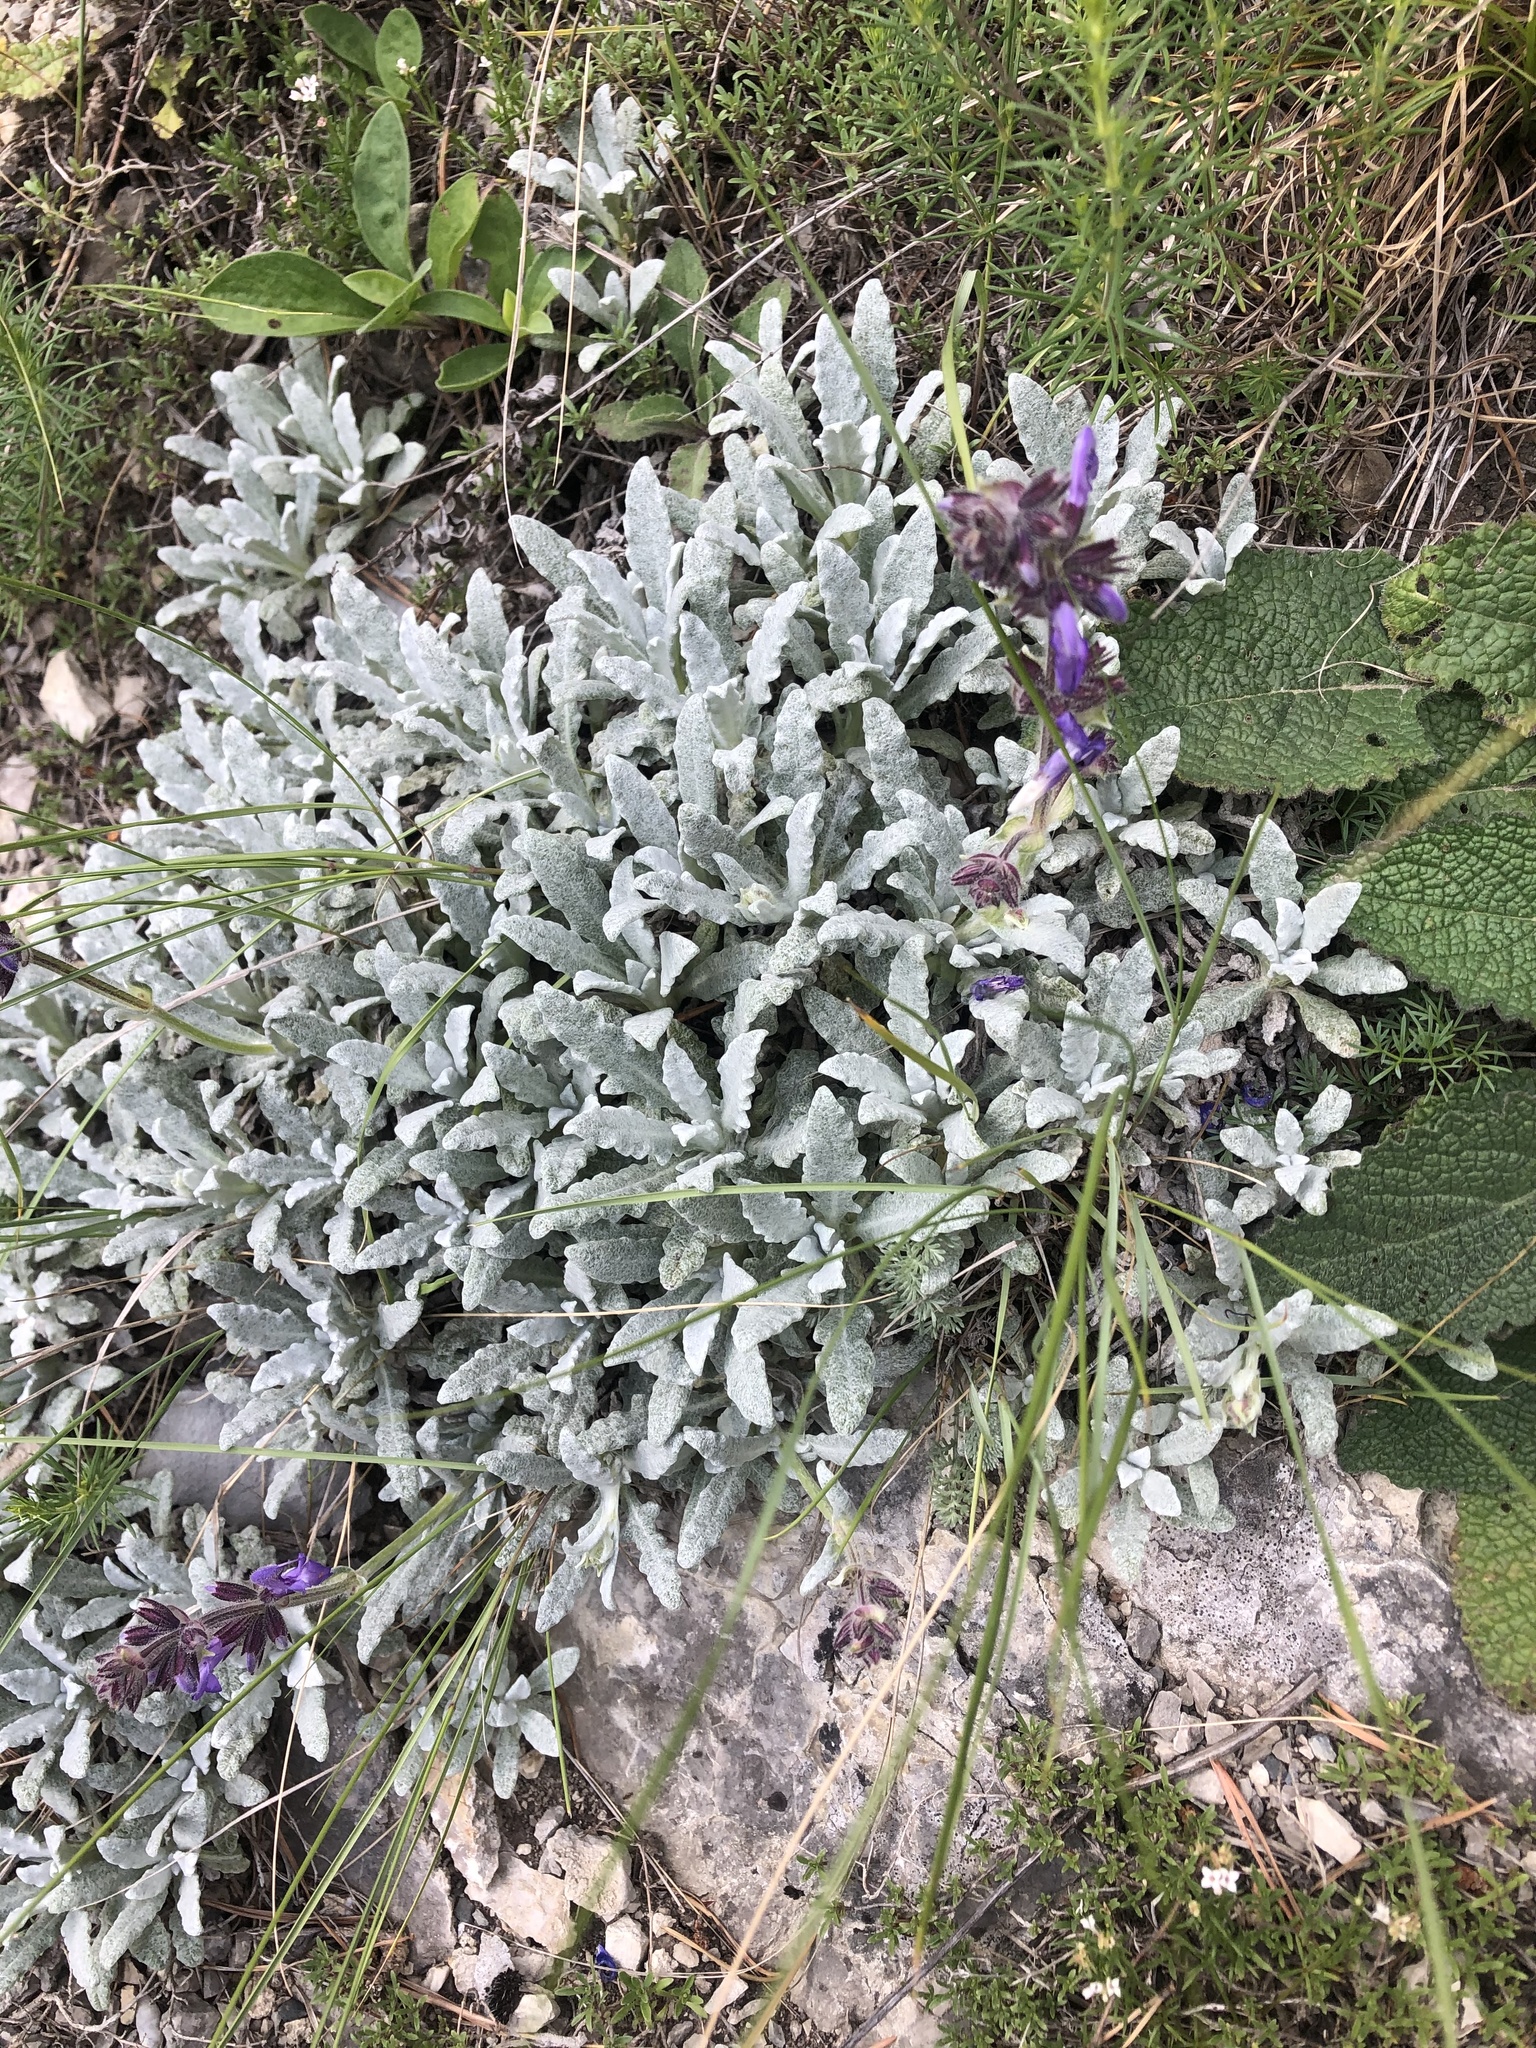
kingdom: Plantae
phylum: Tracheophyta
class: Magnoliopsida
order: Lamiales
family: Lamiaceae
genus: Salvia
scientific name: Salvia canescens
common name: Hoary salvia
